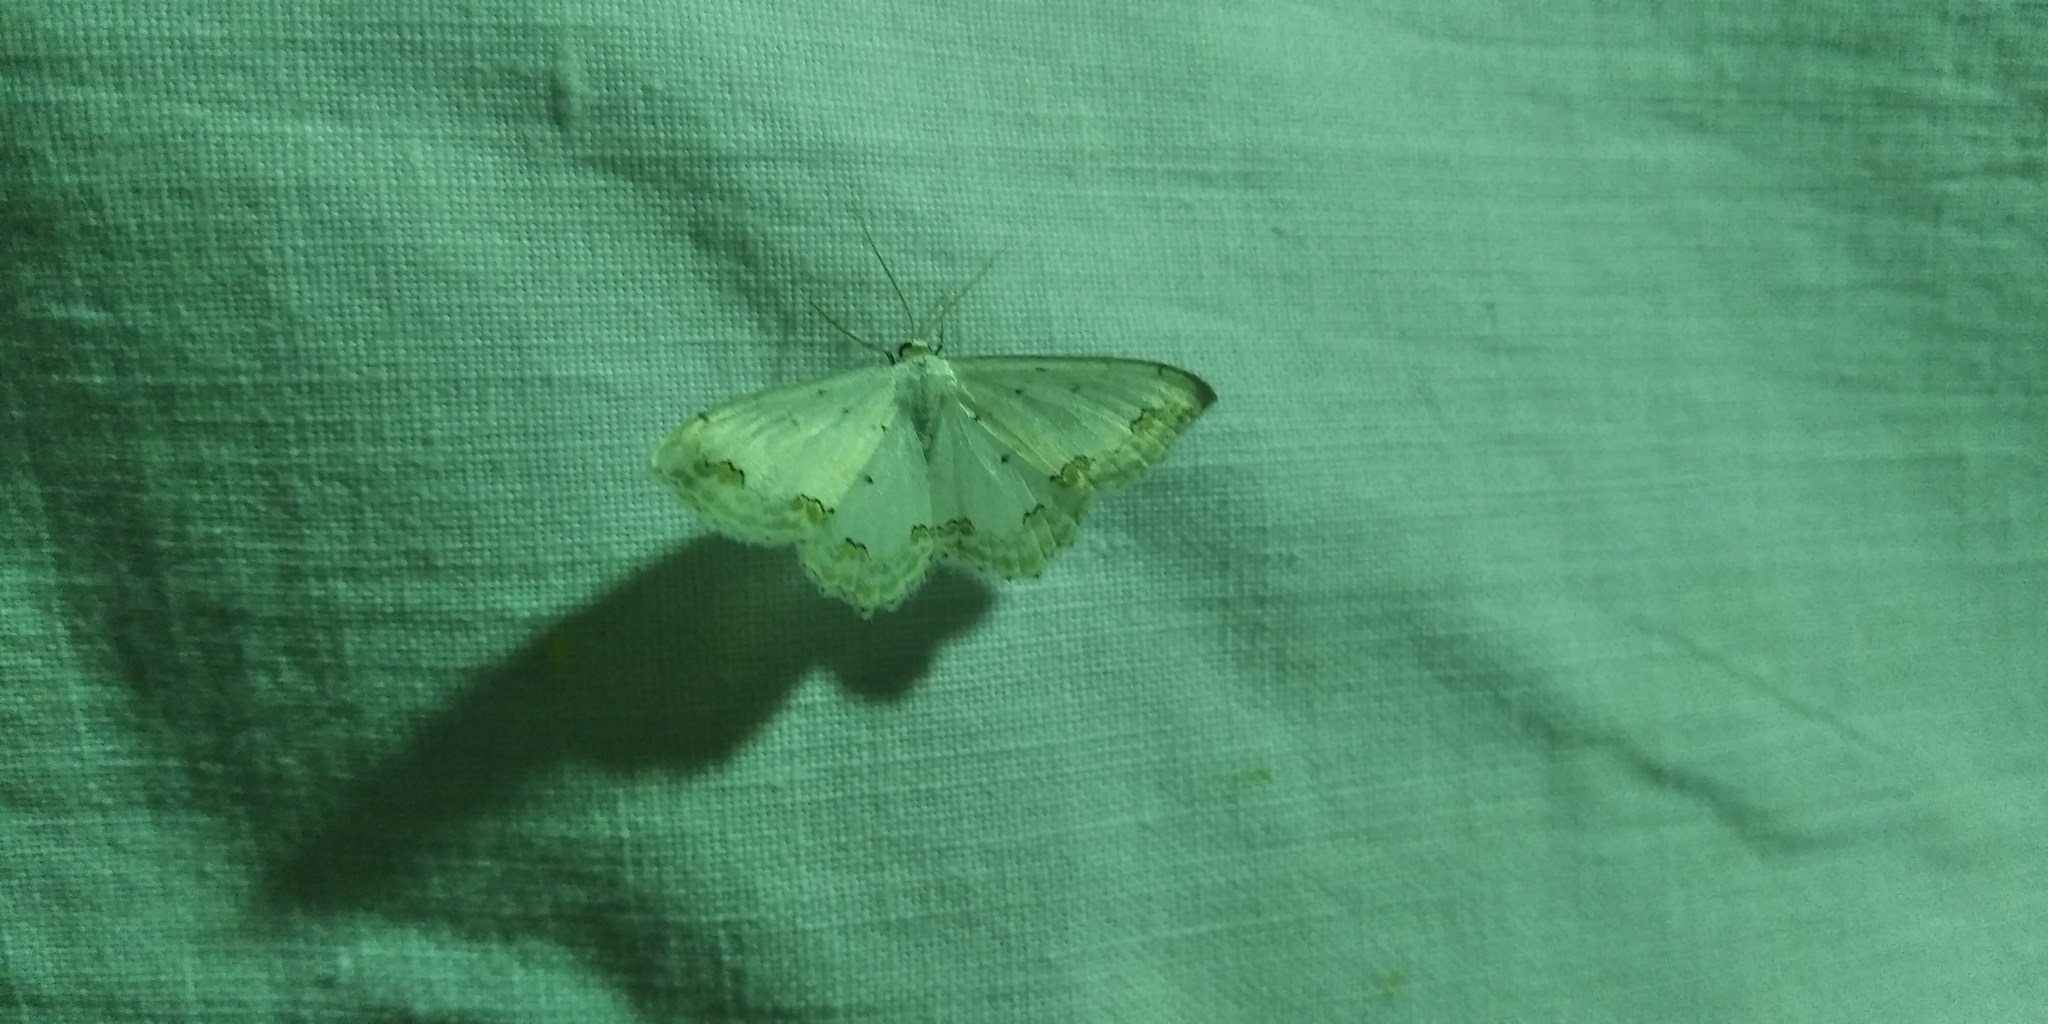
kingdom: Animalia
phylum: Arthropoda
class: Insecta
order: Lepidoptera
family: Geometridae
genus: Scopula
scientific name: Scopula ornata
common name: Lace border
